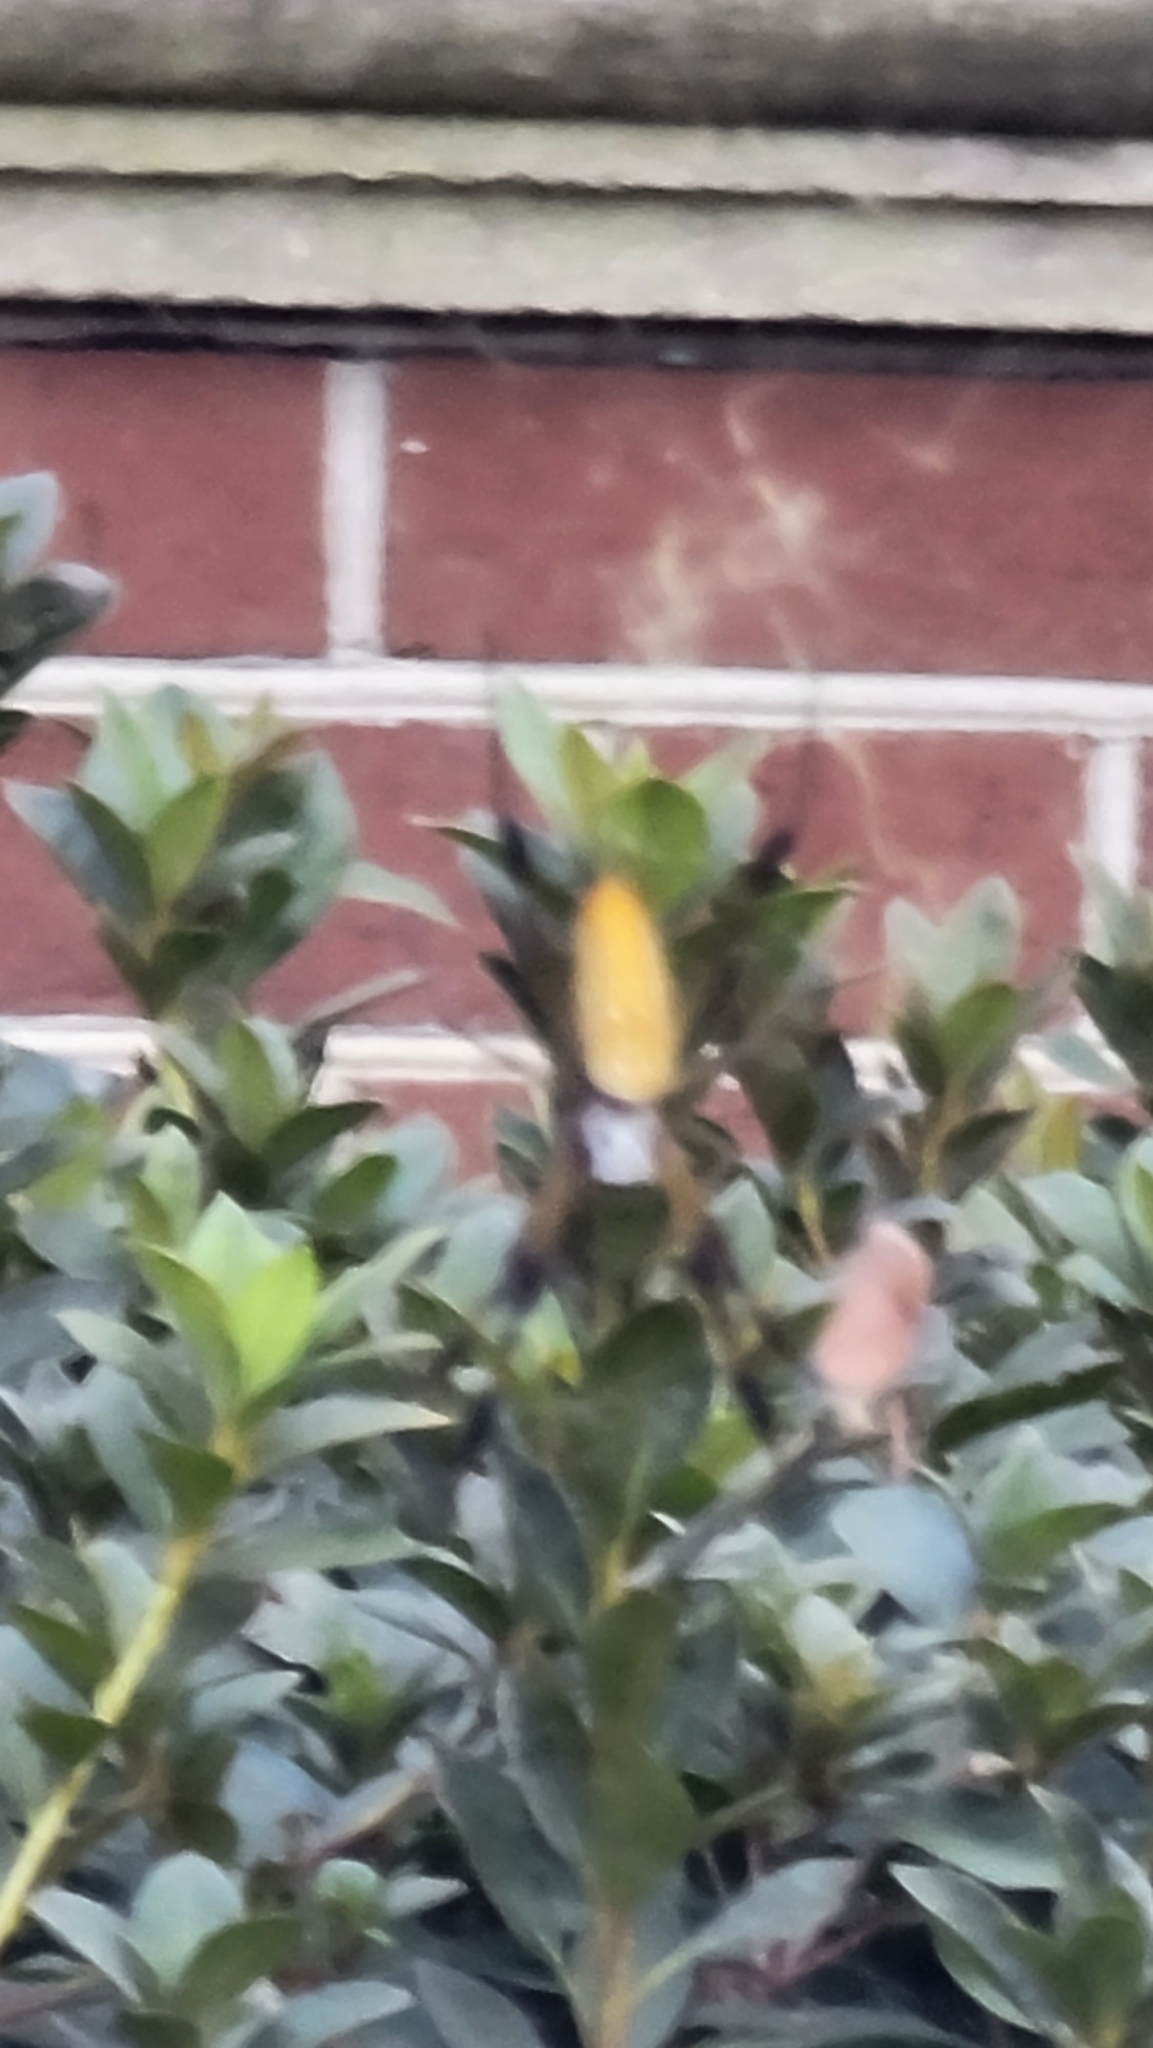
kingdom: Animalia
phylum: Arthropoda
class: Arachnida
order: Araneae
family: Araneidae
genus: Trichonephila
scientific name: Trichonephila clavipes
